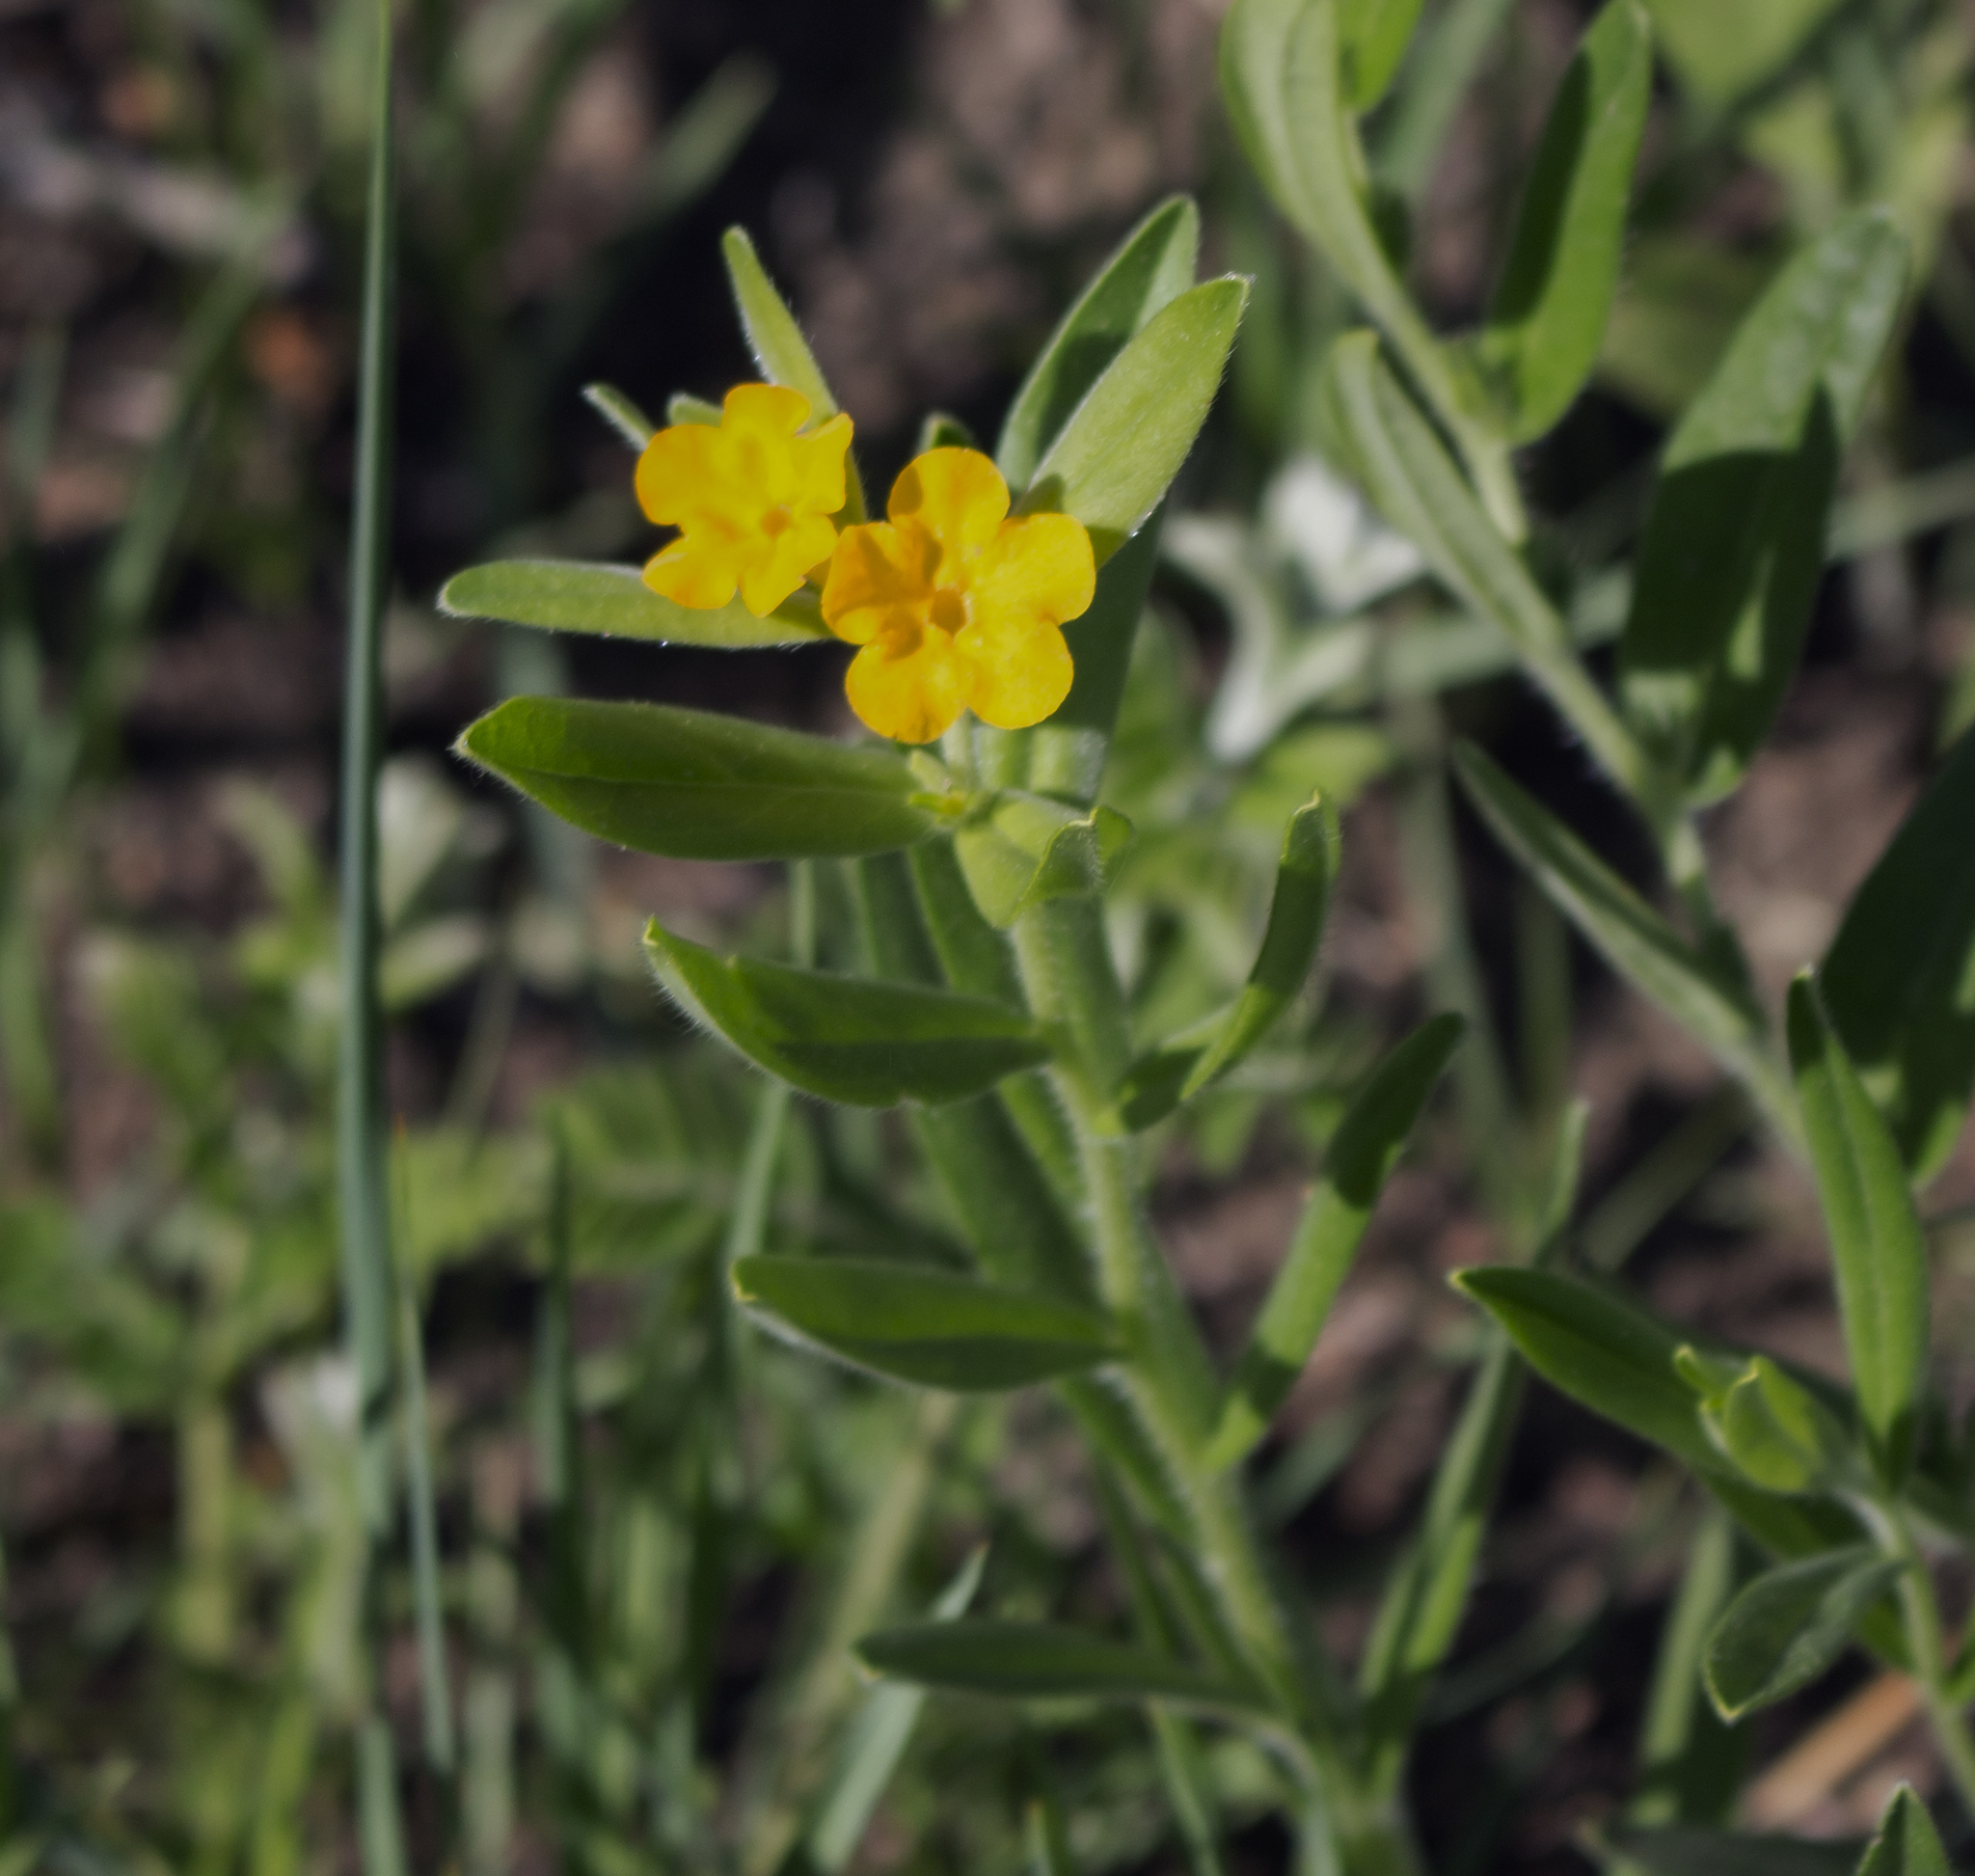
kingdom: Plantae
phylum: Tracheophyta
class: Magnoliopsida
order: Boraginales
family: Boraginaceae
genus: Lithospermum
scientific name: Lithospermum canescens
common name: Hoary puccoon
